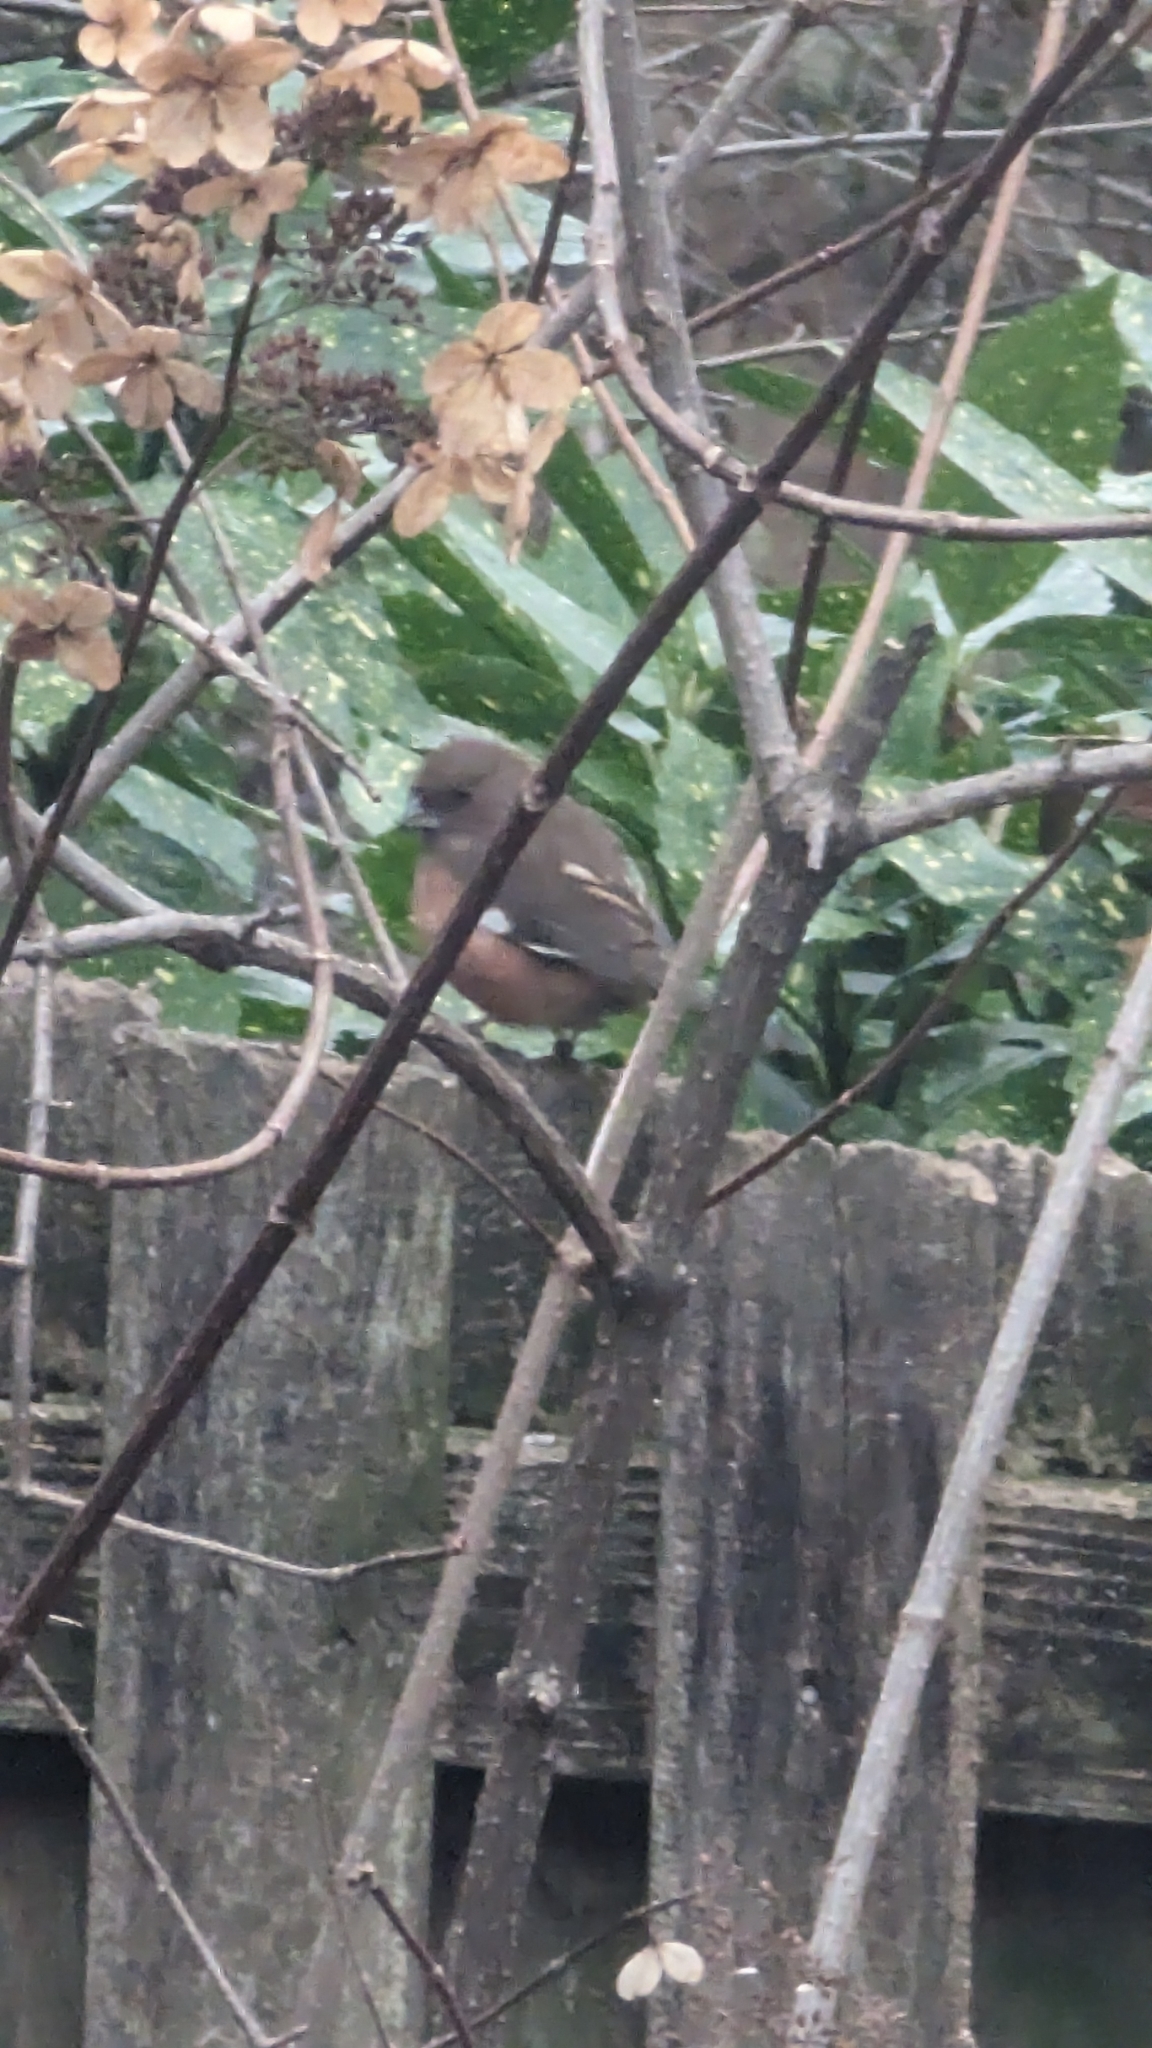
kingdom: Animalia
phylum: Chordata
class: Aves
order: Passeriformes
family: Passerellidae
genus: Pipilo
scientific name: Pipilo erythrophthalmus
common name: Eastern towhee
